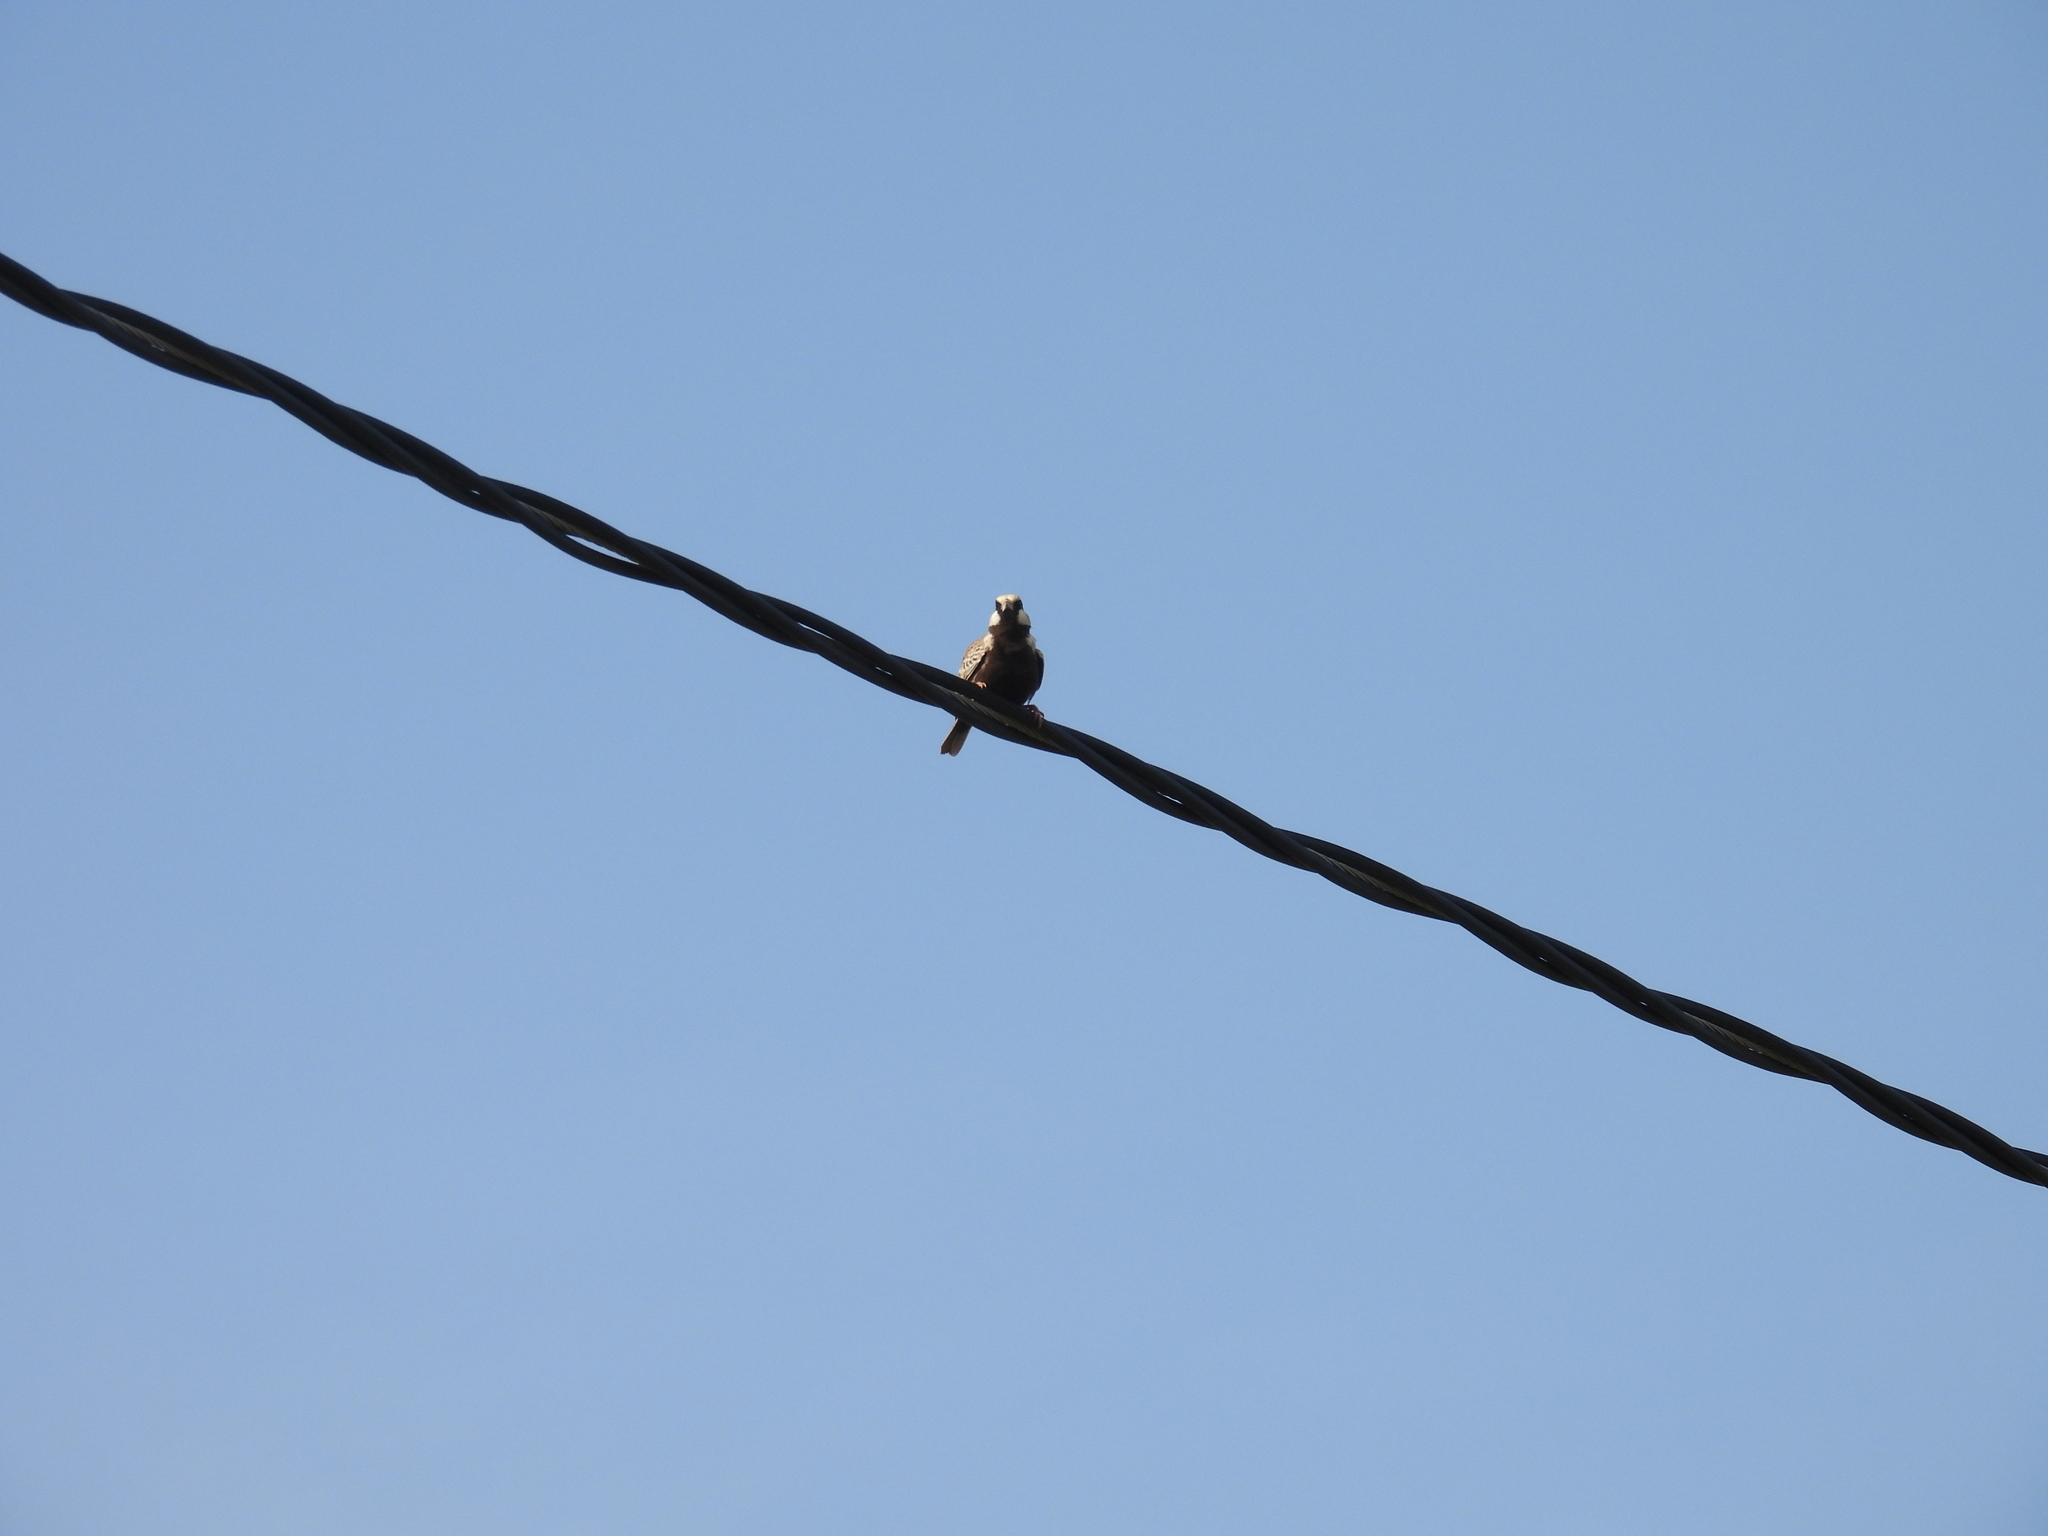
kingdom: Animalia
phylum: Chordata
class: Aves
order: Passeriformes
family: Alaudidae
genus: Eremopterix
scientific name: Eremopterix griseus
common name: Ashy-crowned sparrow-lark
